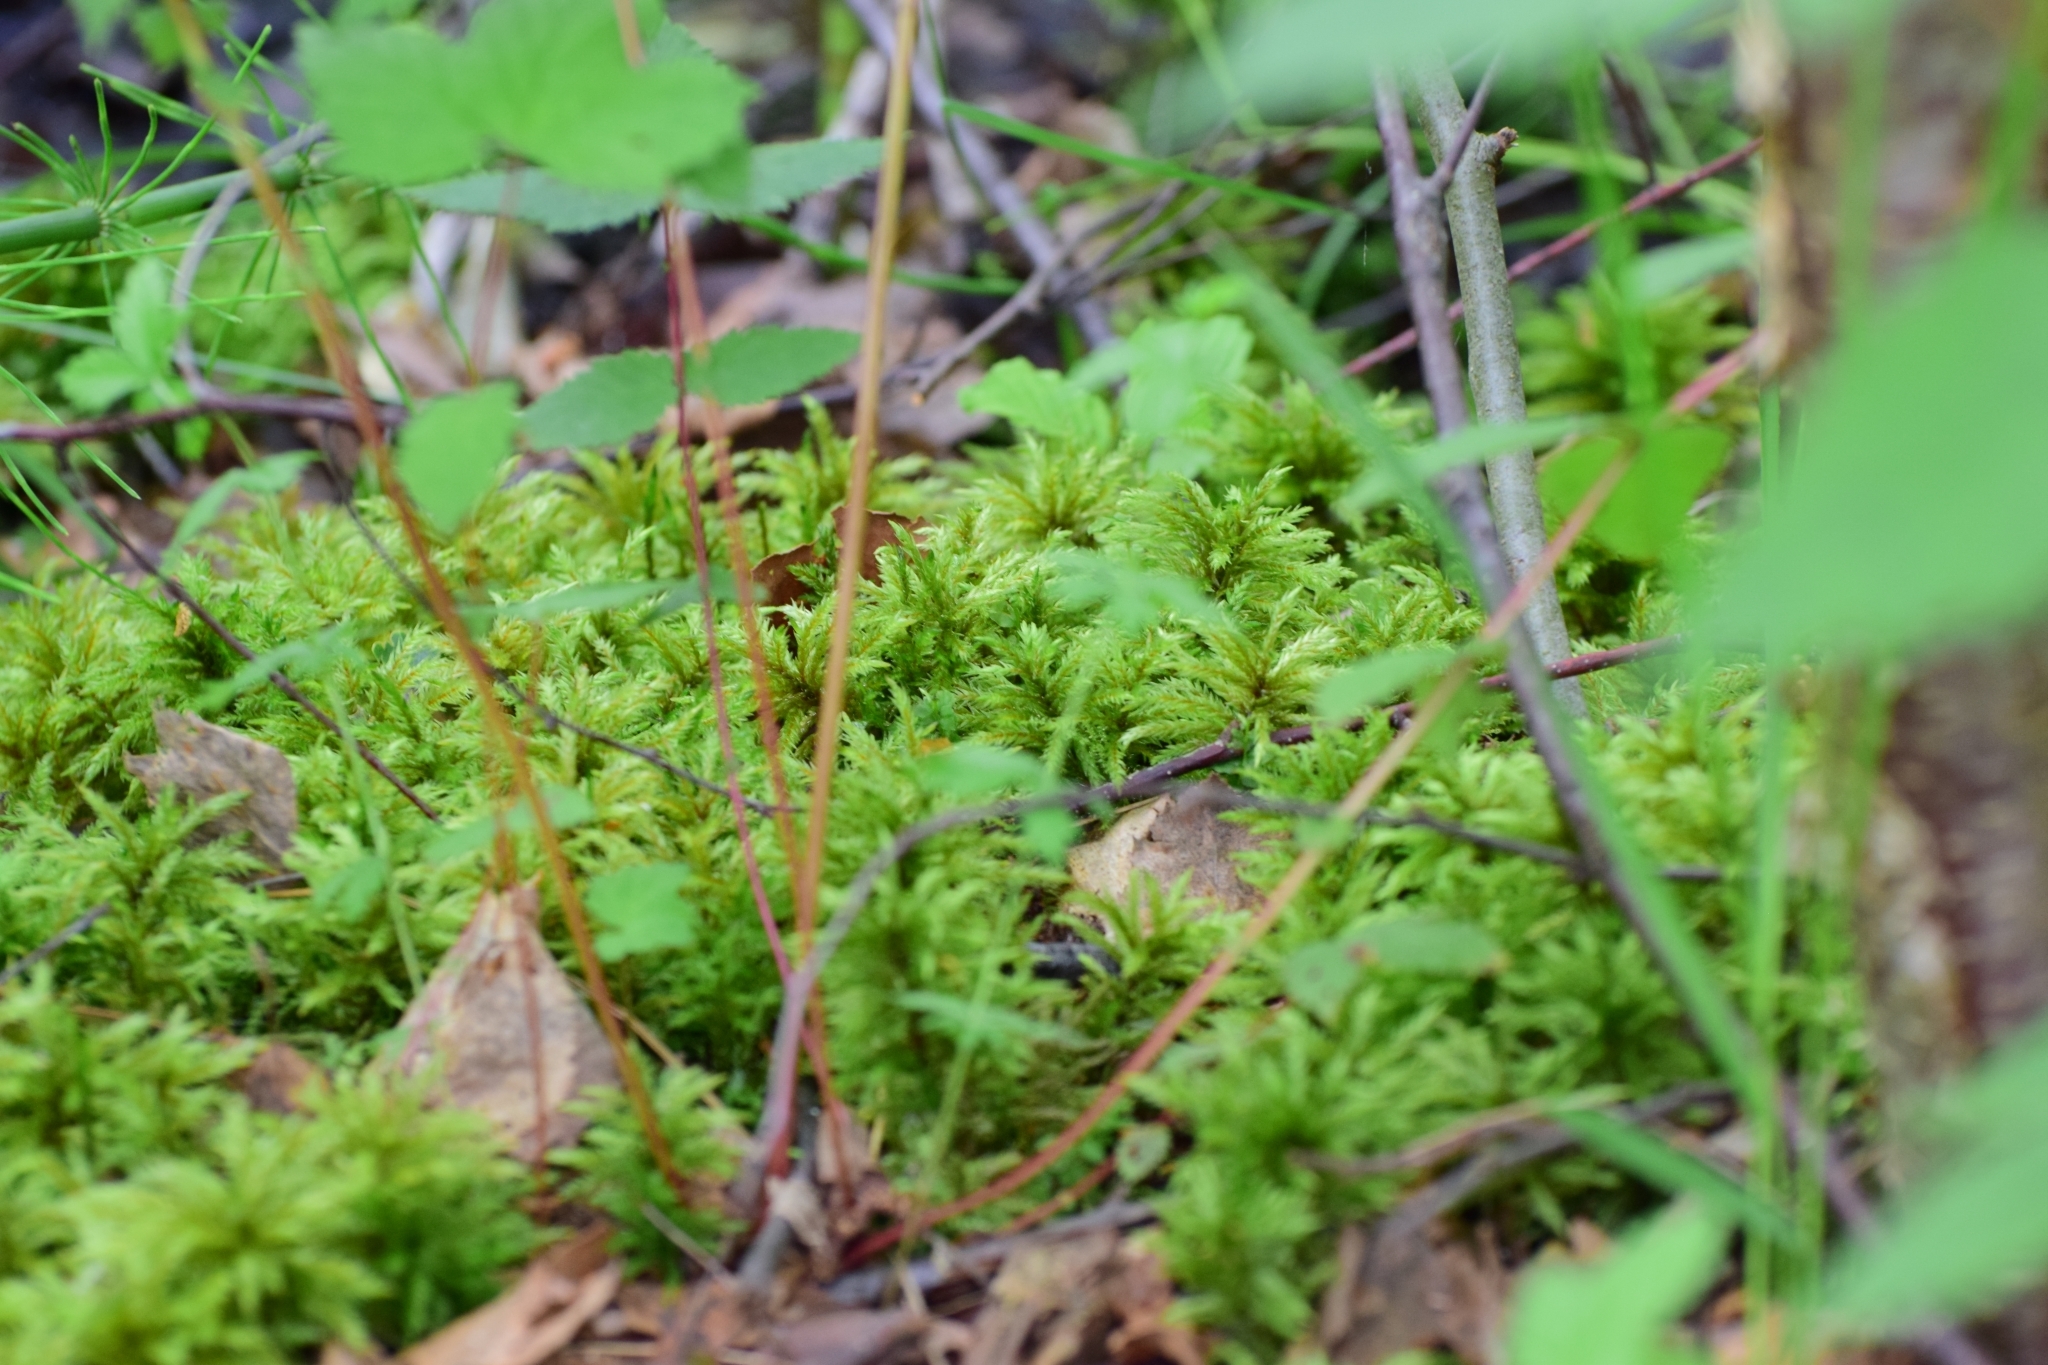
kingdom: Plantae
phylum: Bryophyta
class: Bryopsida
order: Hypnales
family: Climaciaceae
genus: Climacium
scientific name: Climacium dendroides
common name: Northern tree moss
